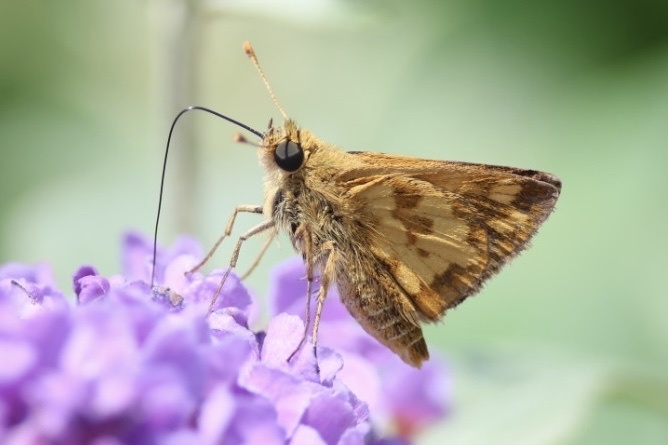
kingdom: Animalia
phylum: Arthropoda
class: Insecta
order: Lepidoptera
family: Hesperiidae
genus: Polites
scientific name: Polites coras
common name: Peck's skipper
